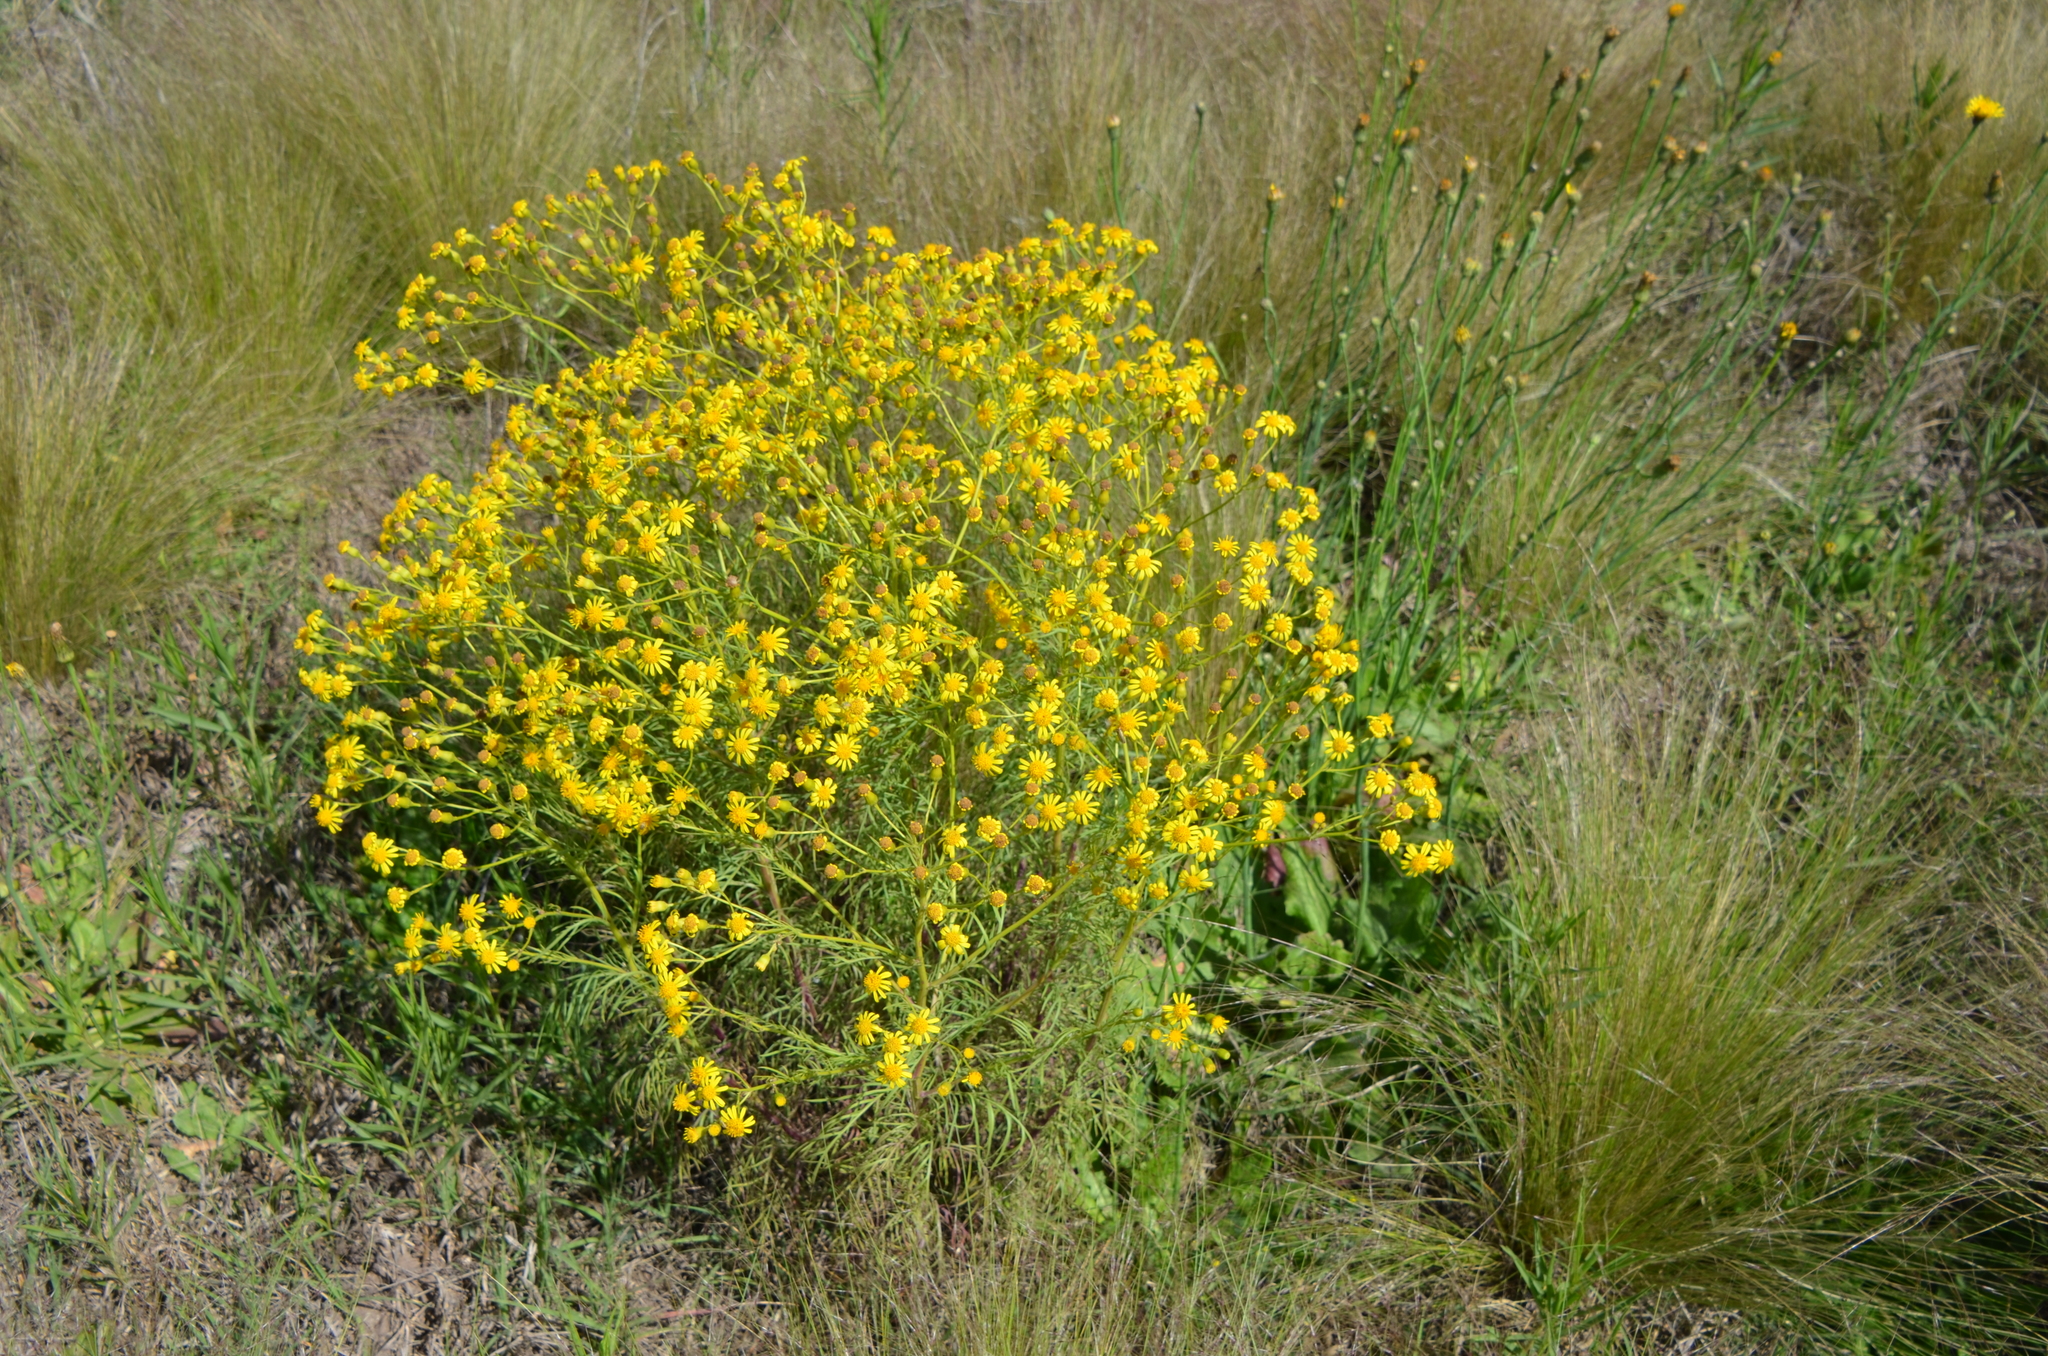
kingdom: Plantae
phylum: Tracheophyta
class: Magnoliopsida
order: Asterales
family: Asteraceae
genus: Senecio
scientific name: Senecio pampeanus
